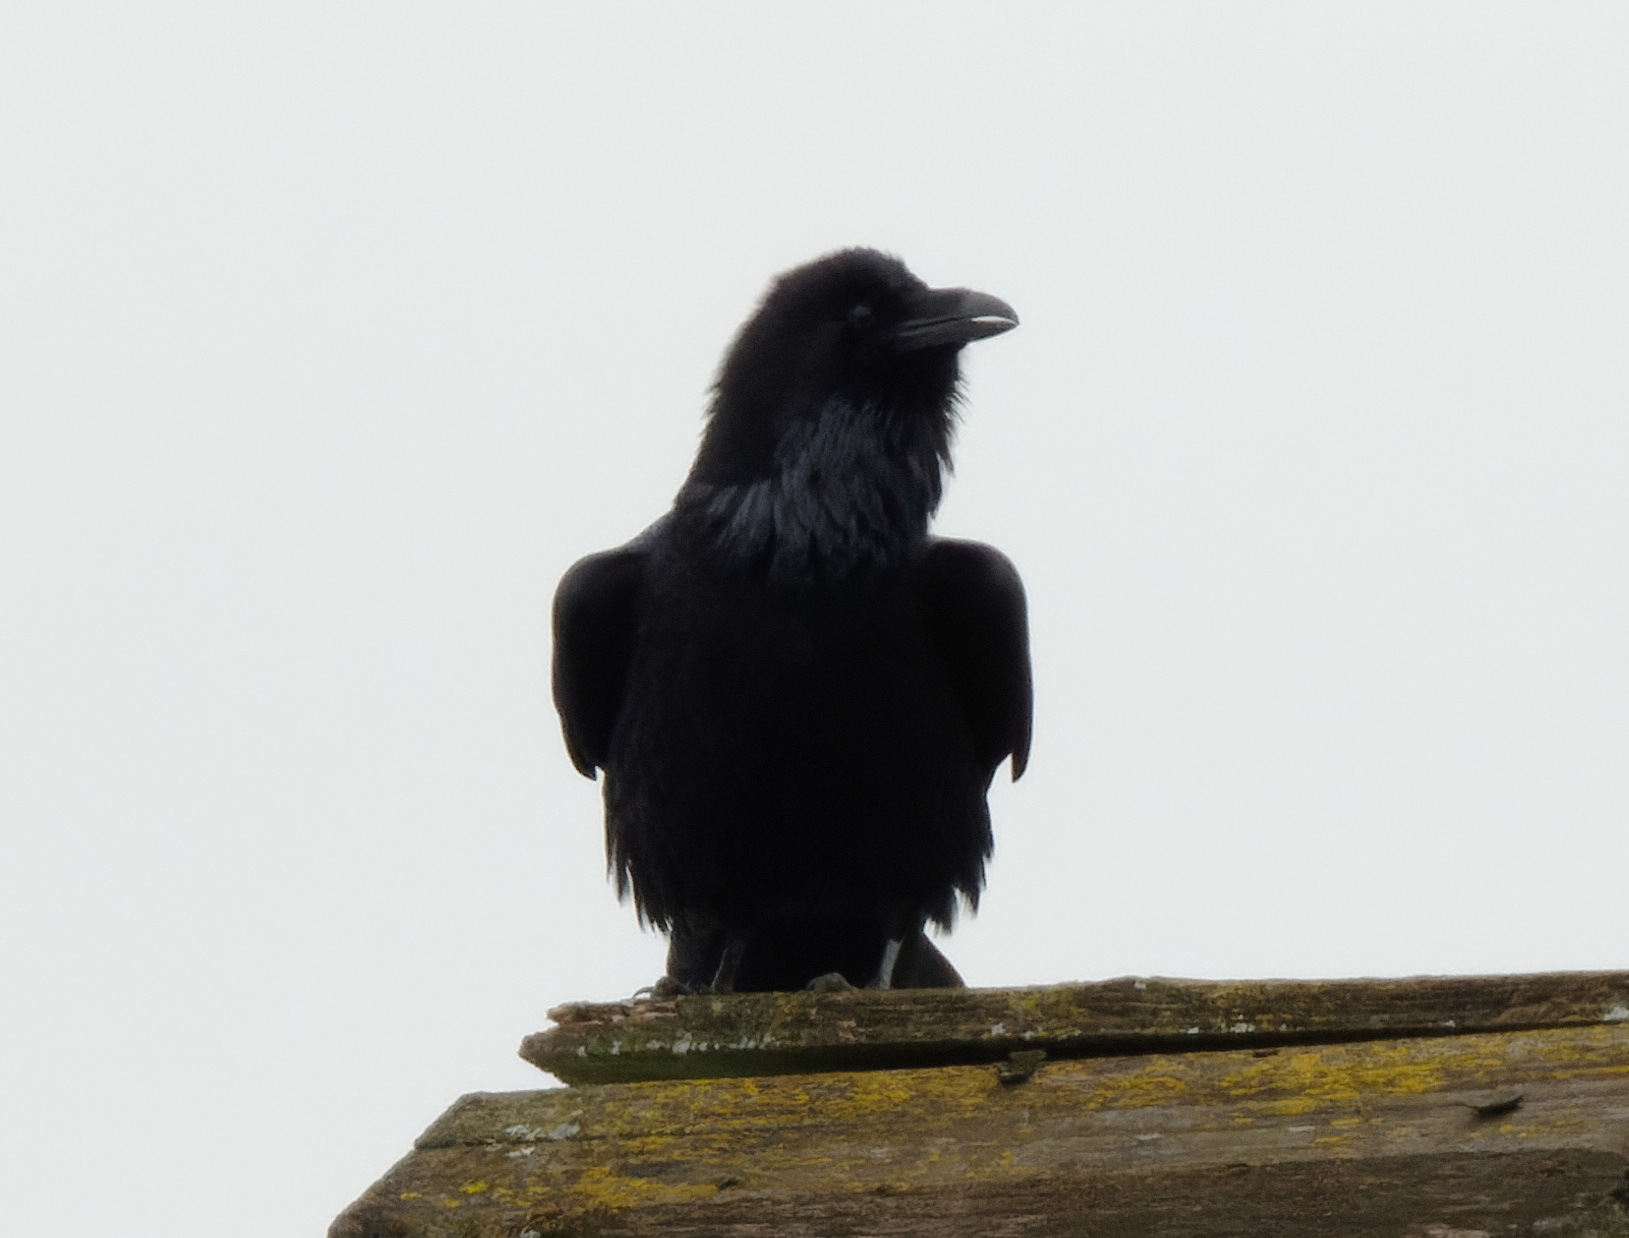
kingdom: Animalia
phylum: Chordata
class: Aves
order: Passeriformes
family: Corvidae
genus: Corvus
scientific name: Corvus corax
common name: Common raven
